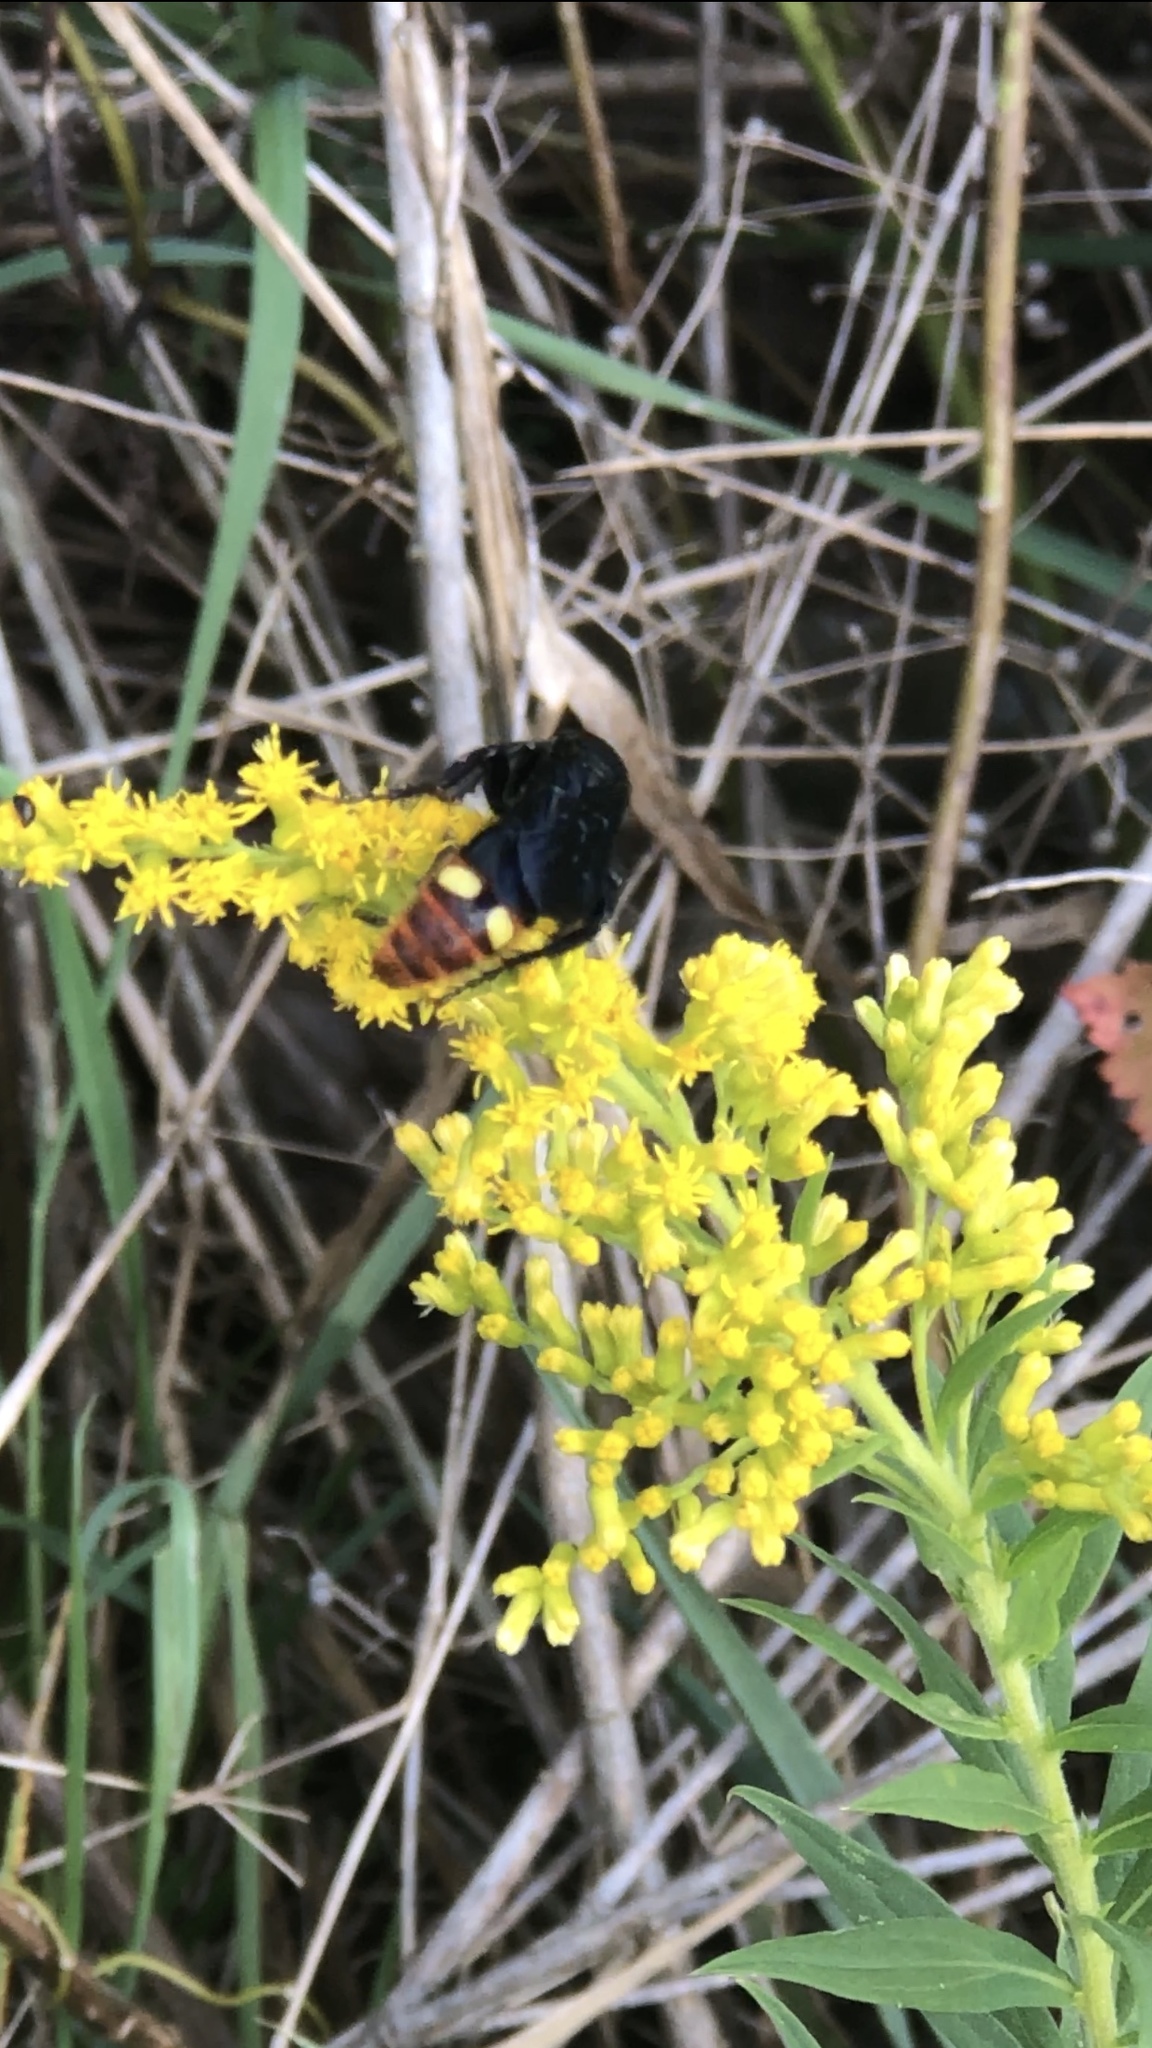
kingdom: Animalia
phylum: Arthropoda
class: Insecta
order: Hymenoptera
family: Scoliidae
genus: Scolia
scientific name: Scolia dubia
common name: Blue-winged scoliid wasp
